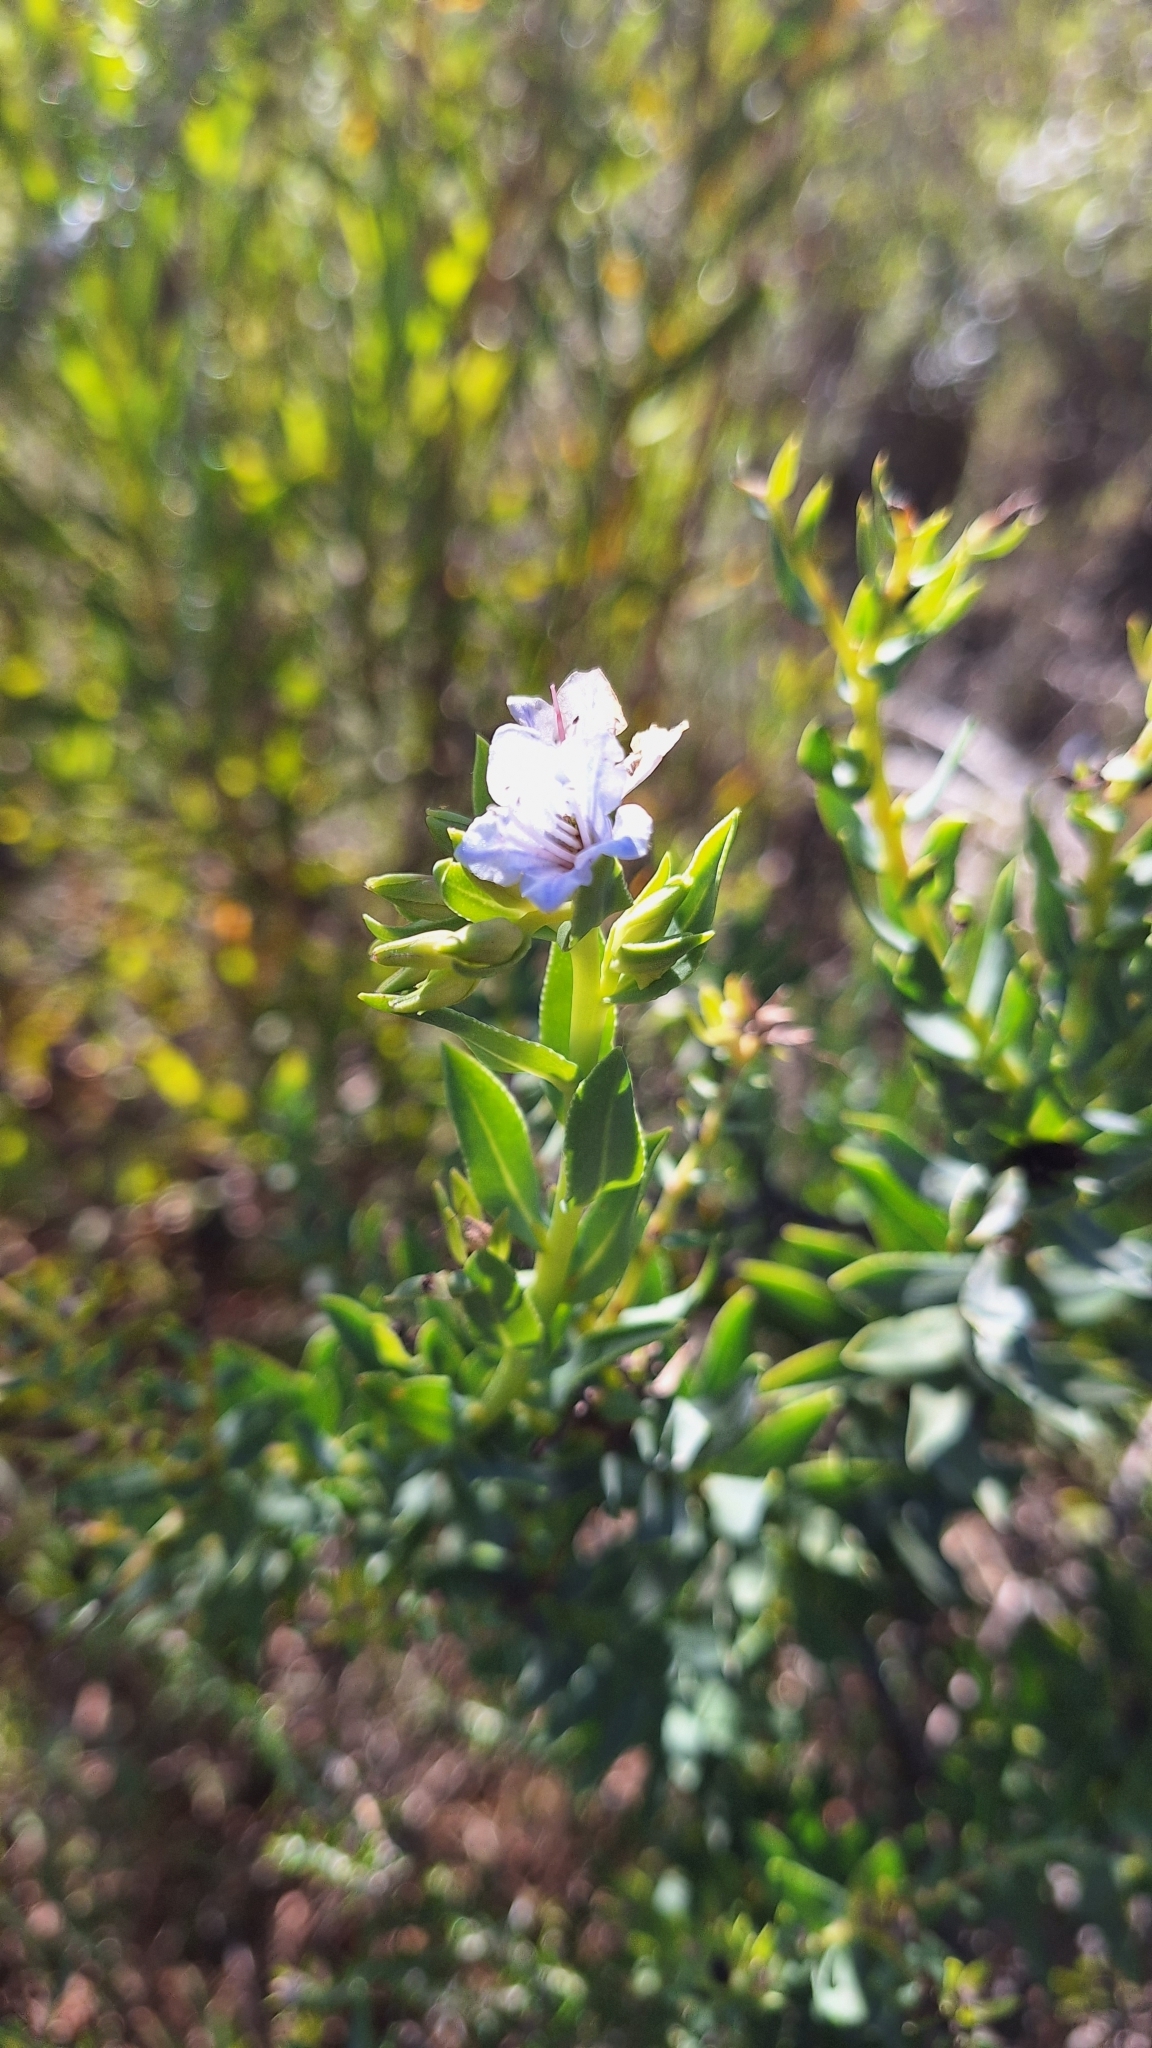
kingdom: Plantae
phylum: Tracheophyta
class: Magnoliopsida
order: Boraginales
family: Boraginaceae
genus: Lobostemon
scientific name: Lobostemon glaucophyllus
